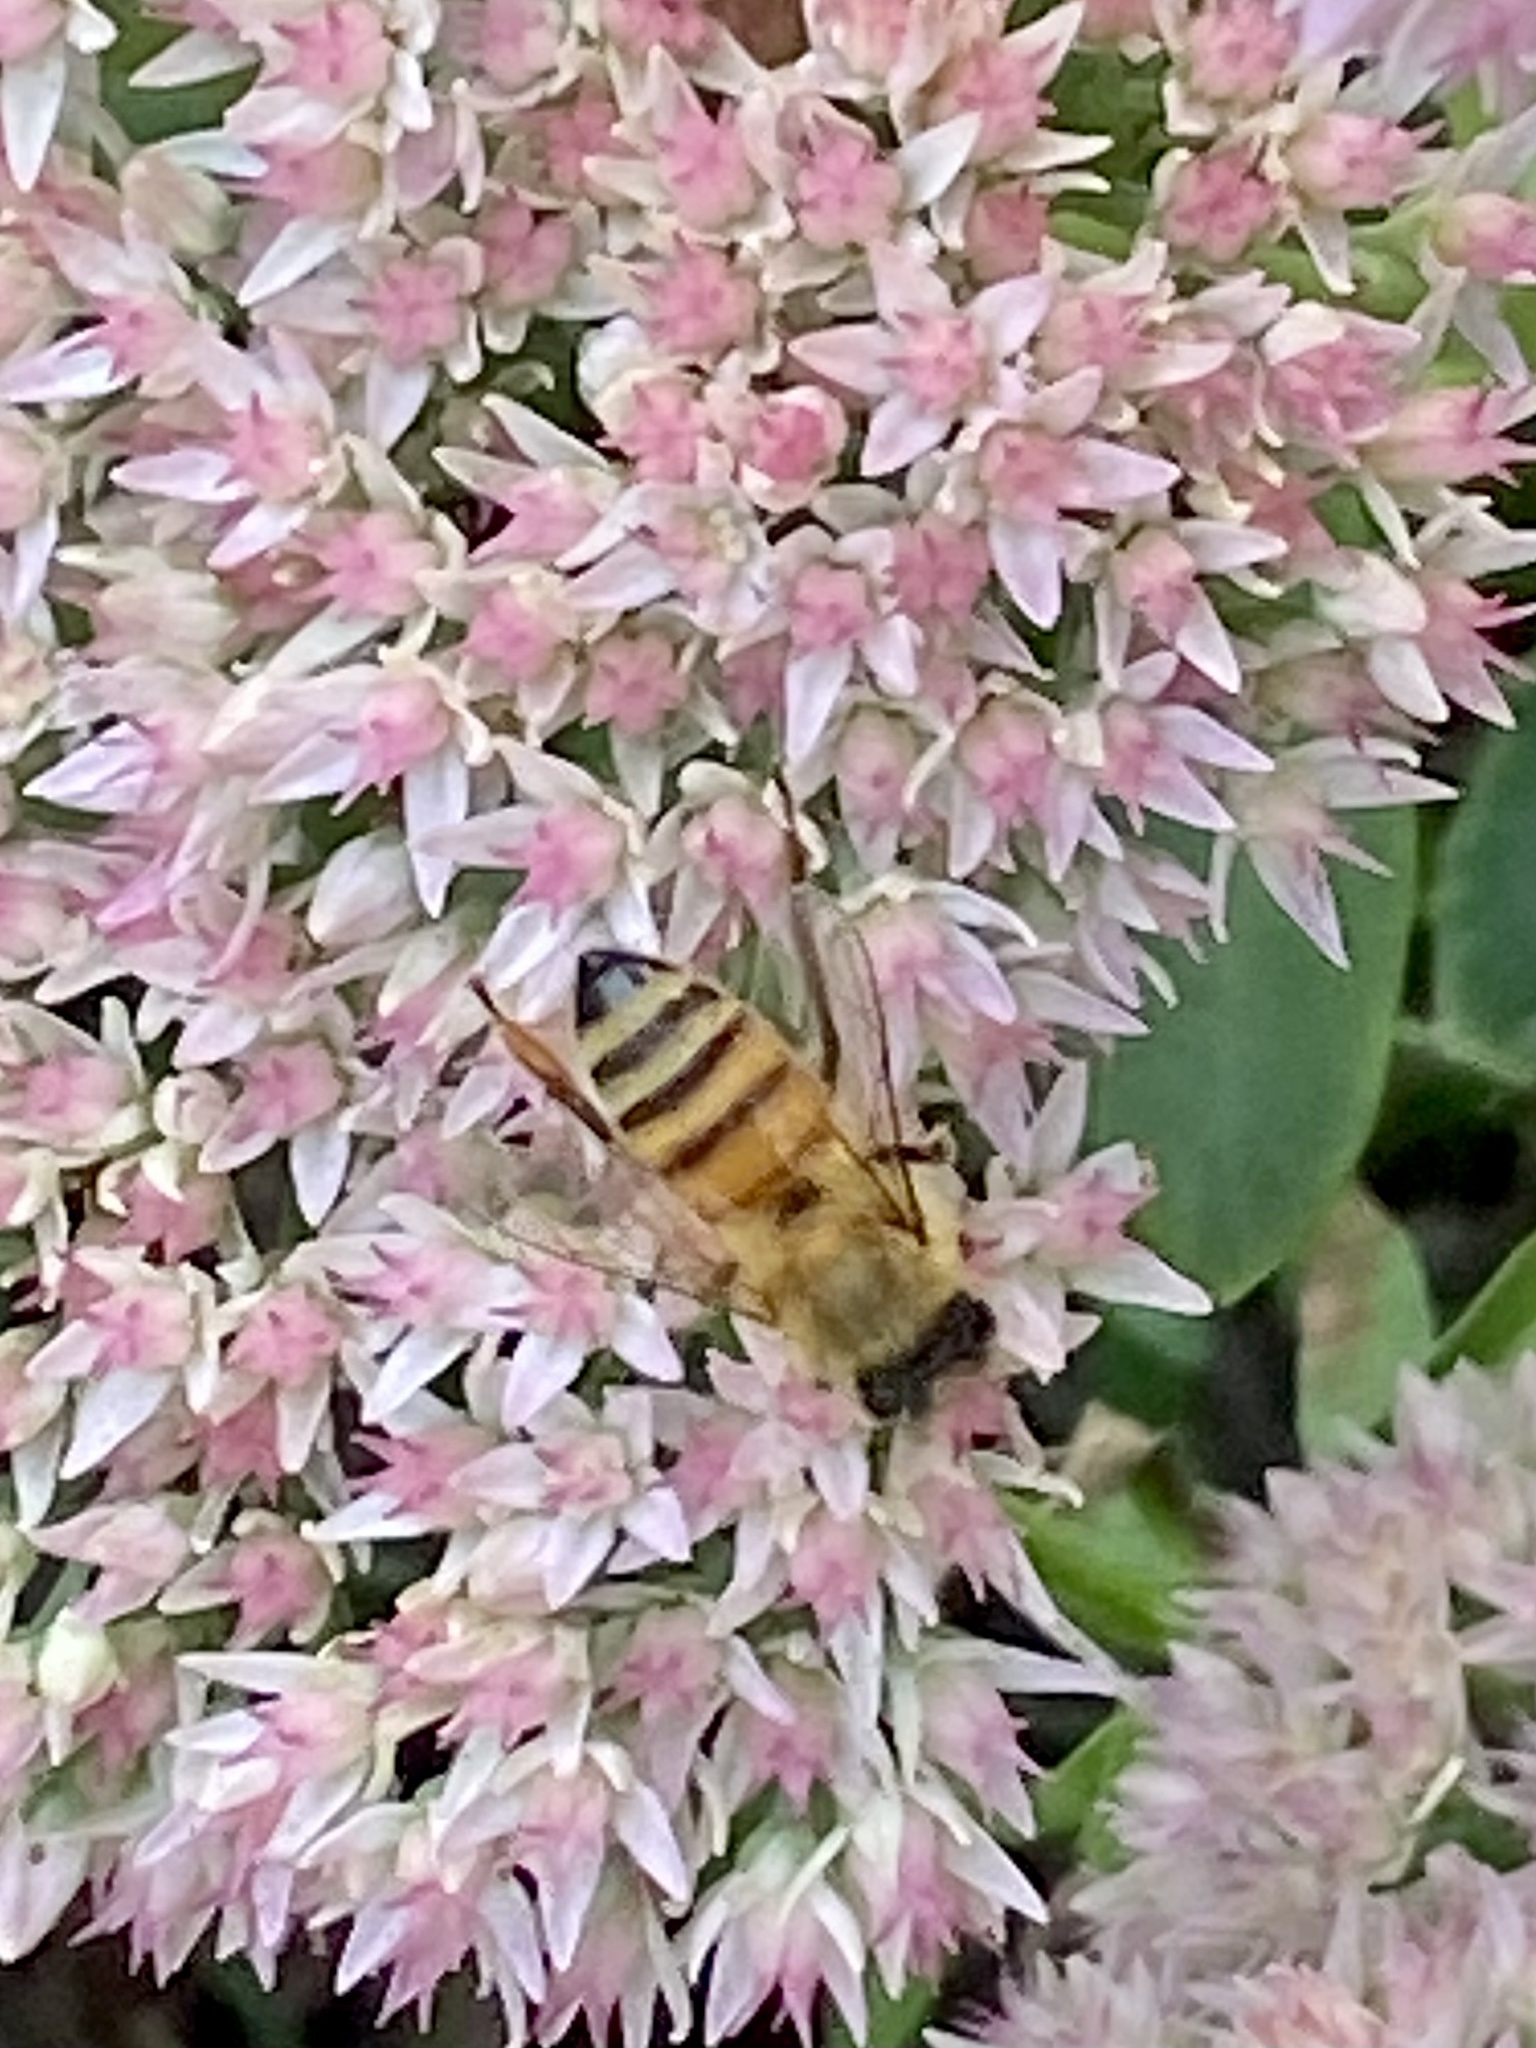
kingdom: Animalia
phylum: Arthropoda
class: Insecta
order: Hymenoptera
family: Apidae
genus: Apis
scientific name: Apis mellifera
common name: Honey bee
